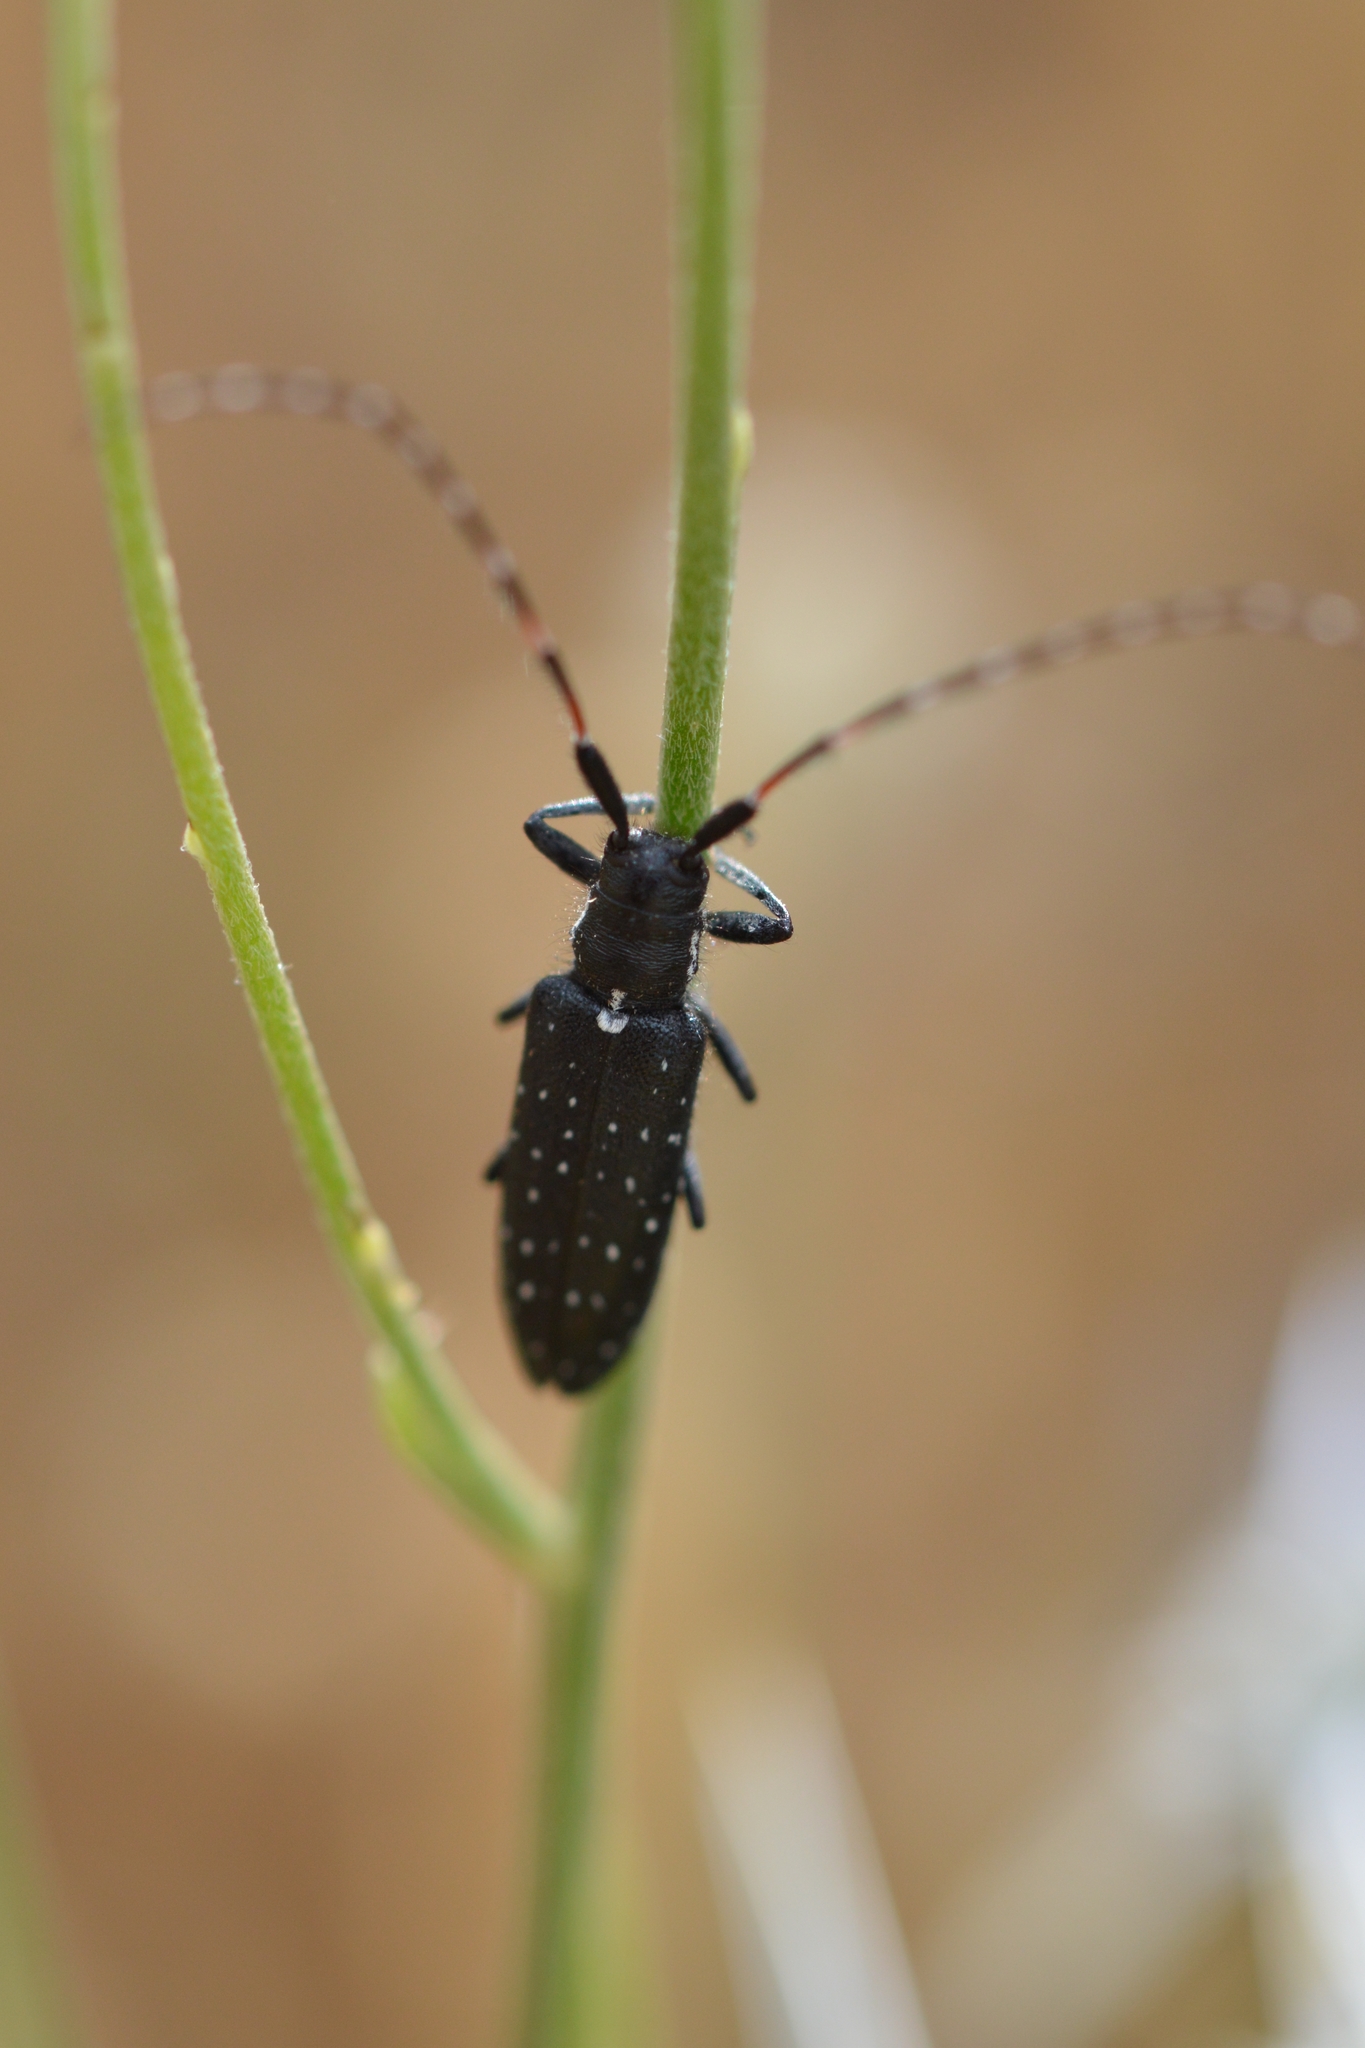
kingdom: Animalia
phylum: Arthropoda
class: Insecta
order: Coleoptera
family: Cerambycidae
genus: Agapanthia
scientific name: Agapanthia irrorata
